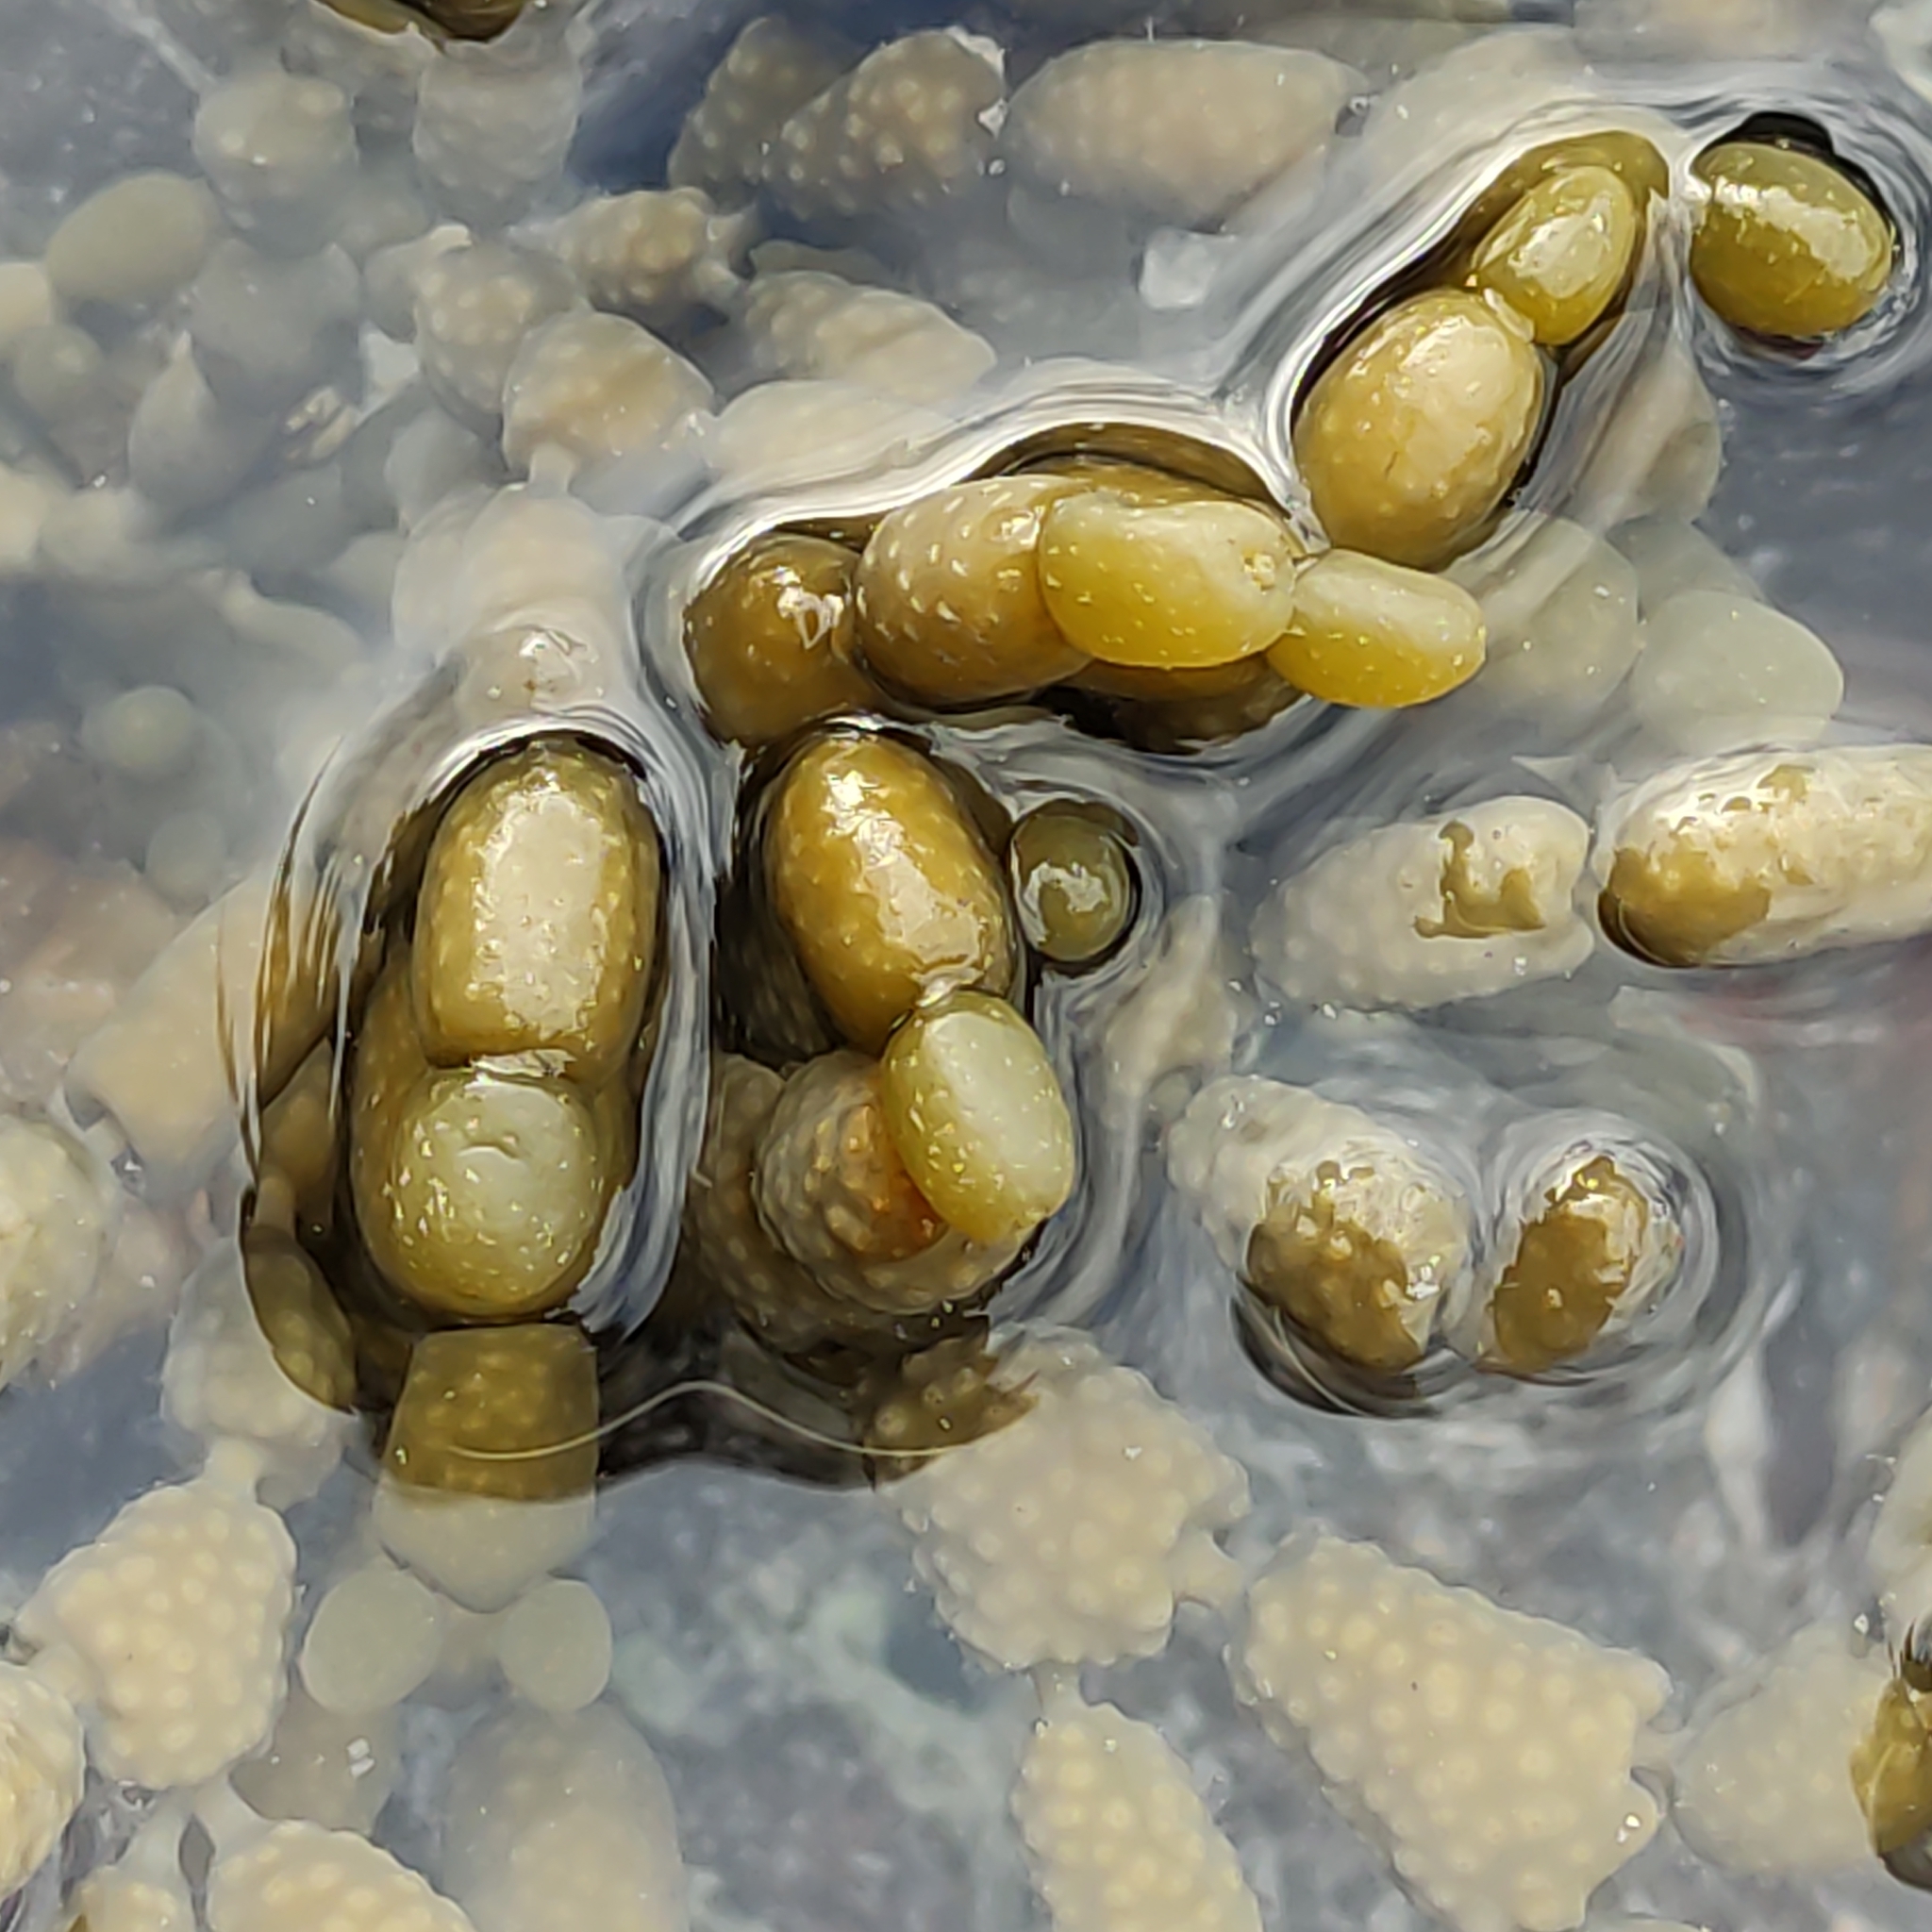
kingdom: Chromista
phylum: Ochrophyta
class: Phaeophyceae
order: Fucales
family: Hormosiraceae
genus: Hormosira
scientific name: Hormosira banksii
